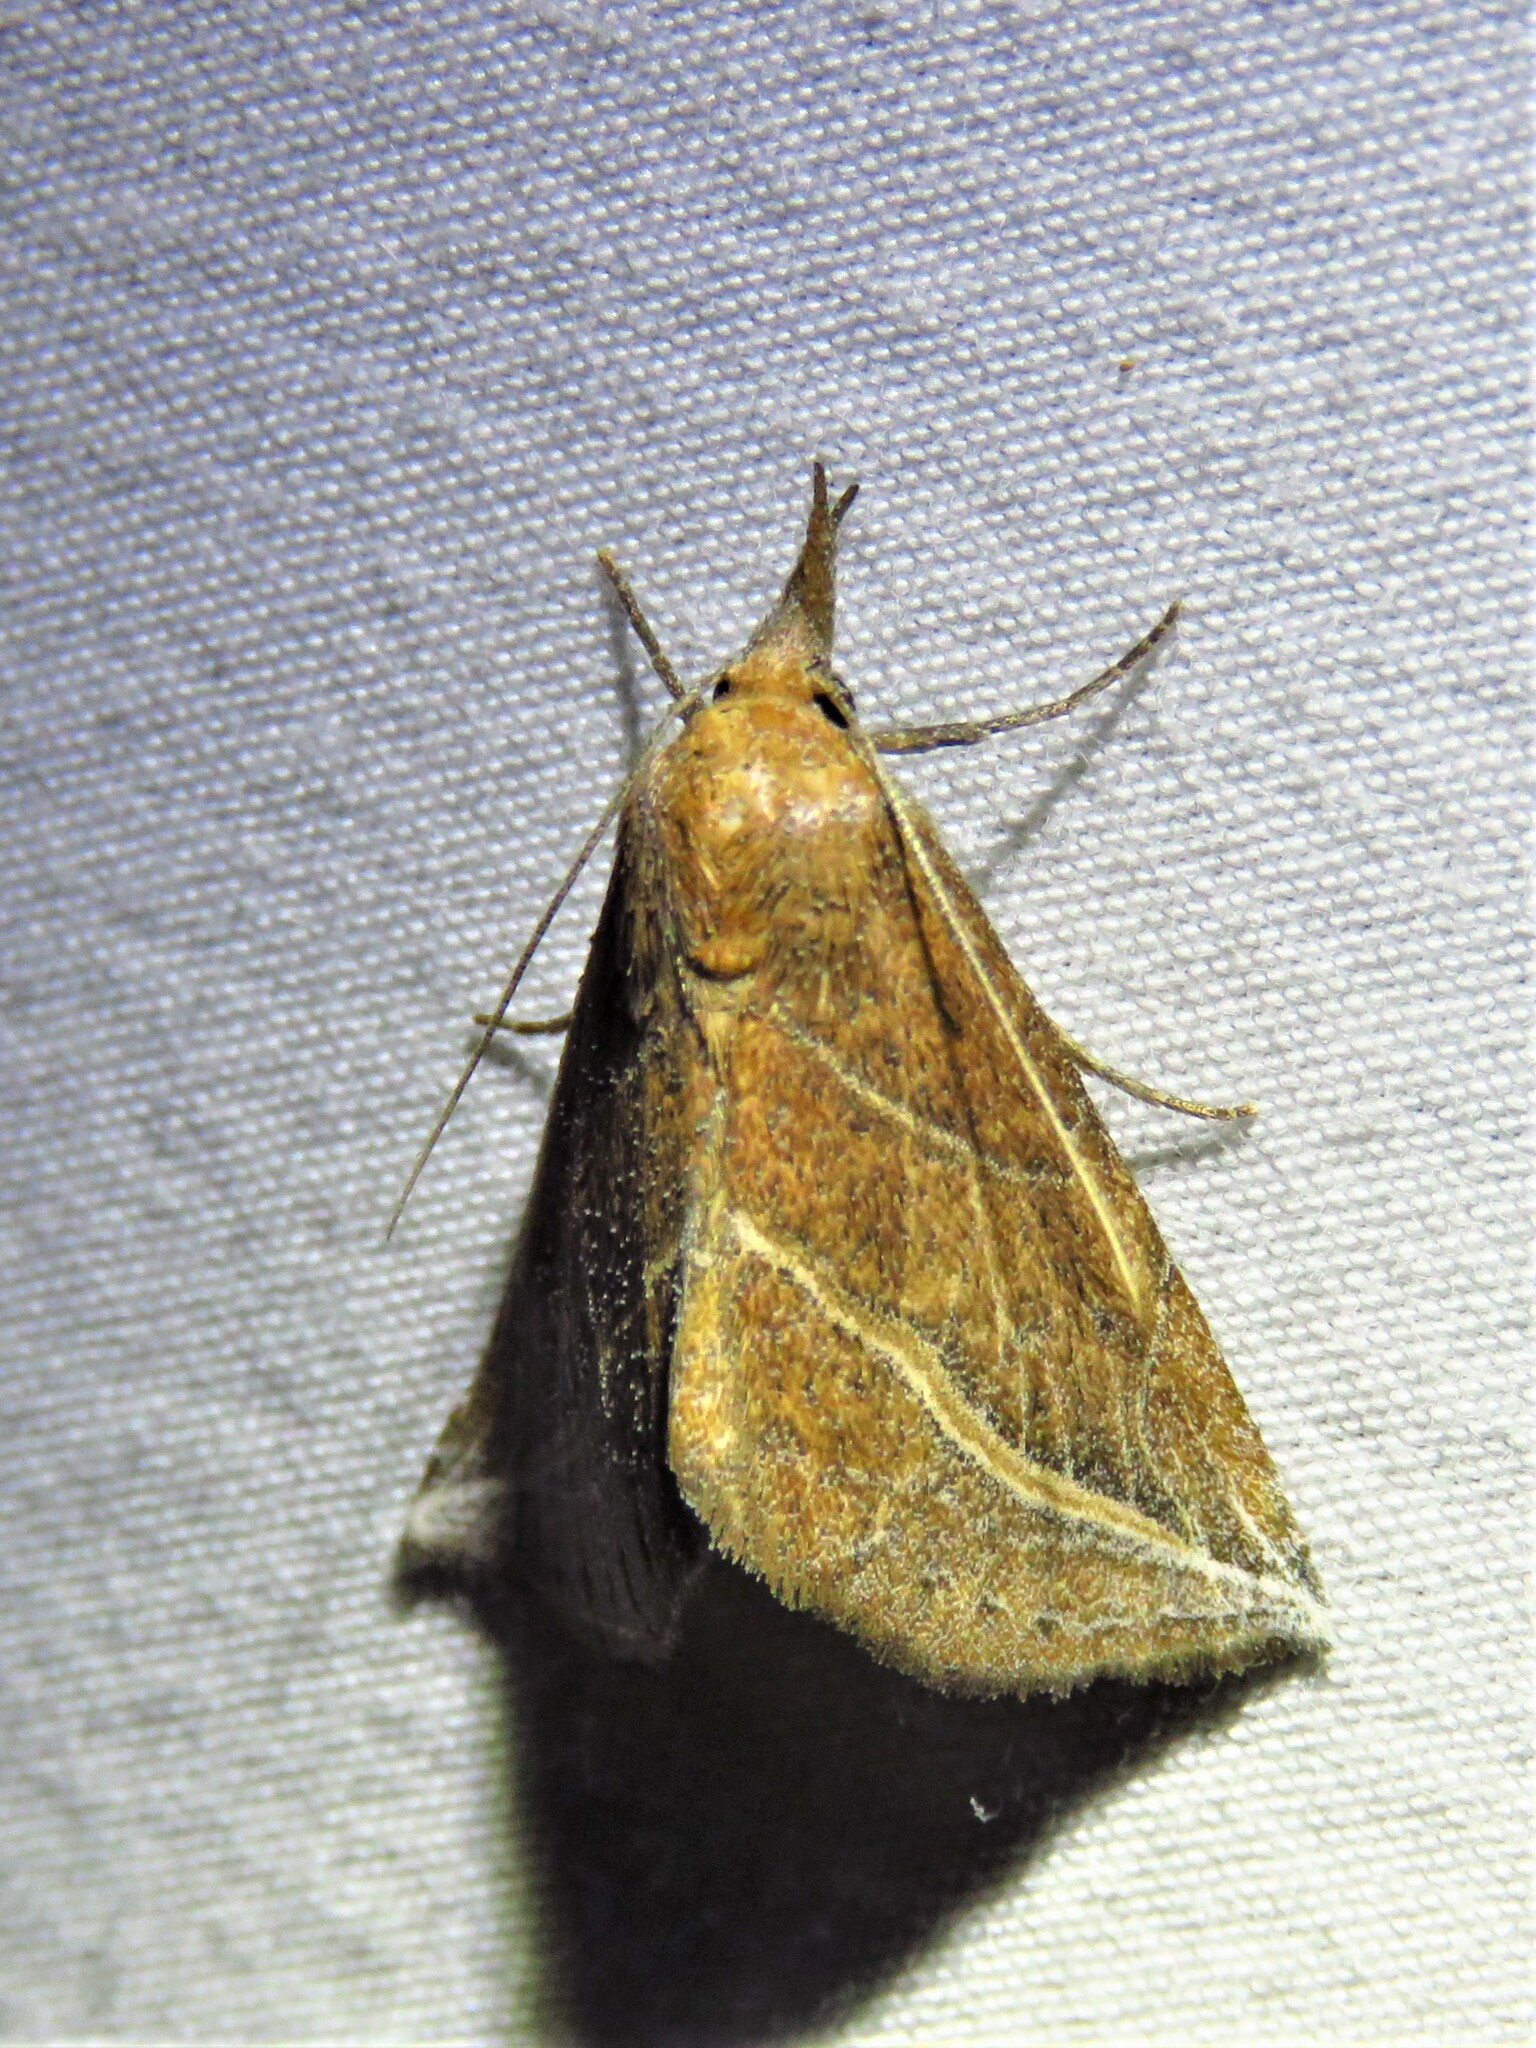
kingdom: Animalia
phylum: Arthropoda
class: Insecta
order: Lepidoptera
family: Erebidae
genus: Phyprosopus
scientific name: Phyprosopus callitrichoides
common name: Curved-lined owlet
